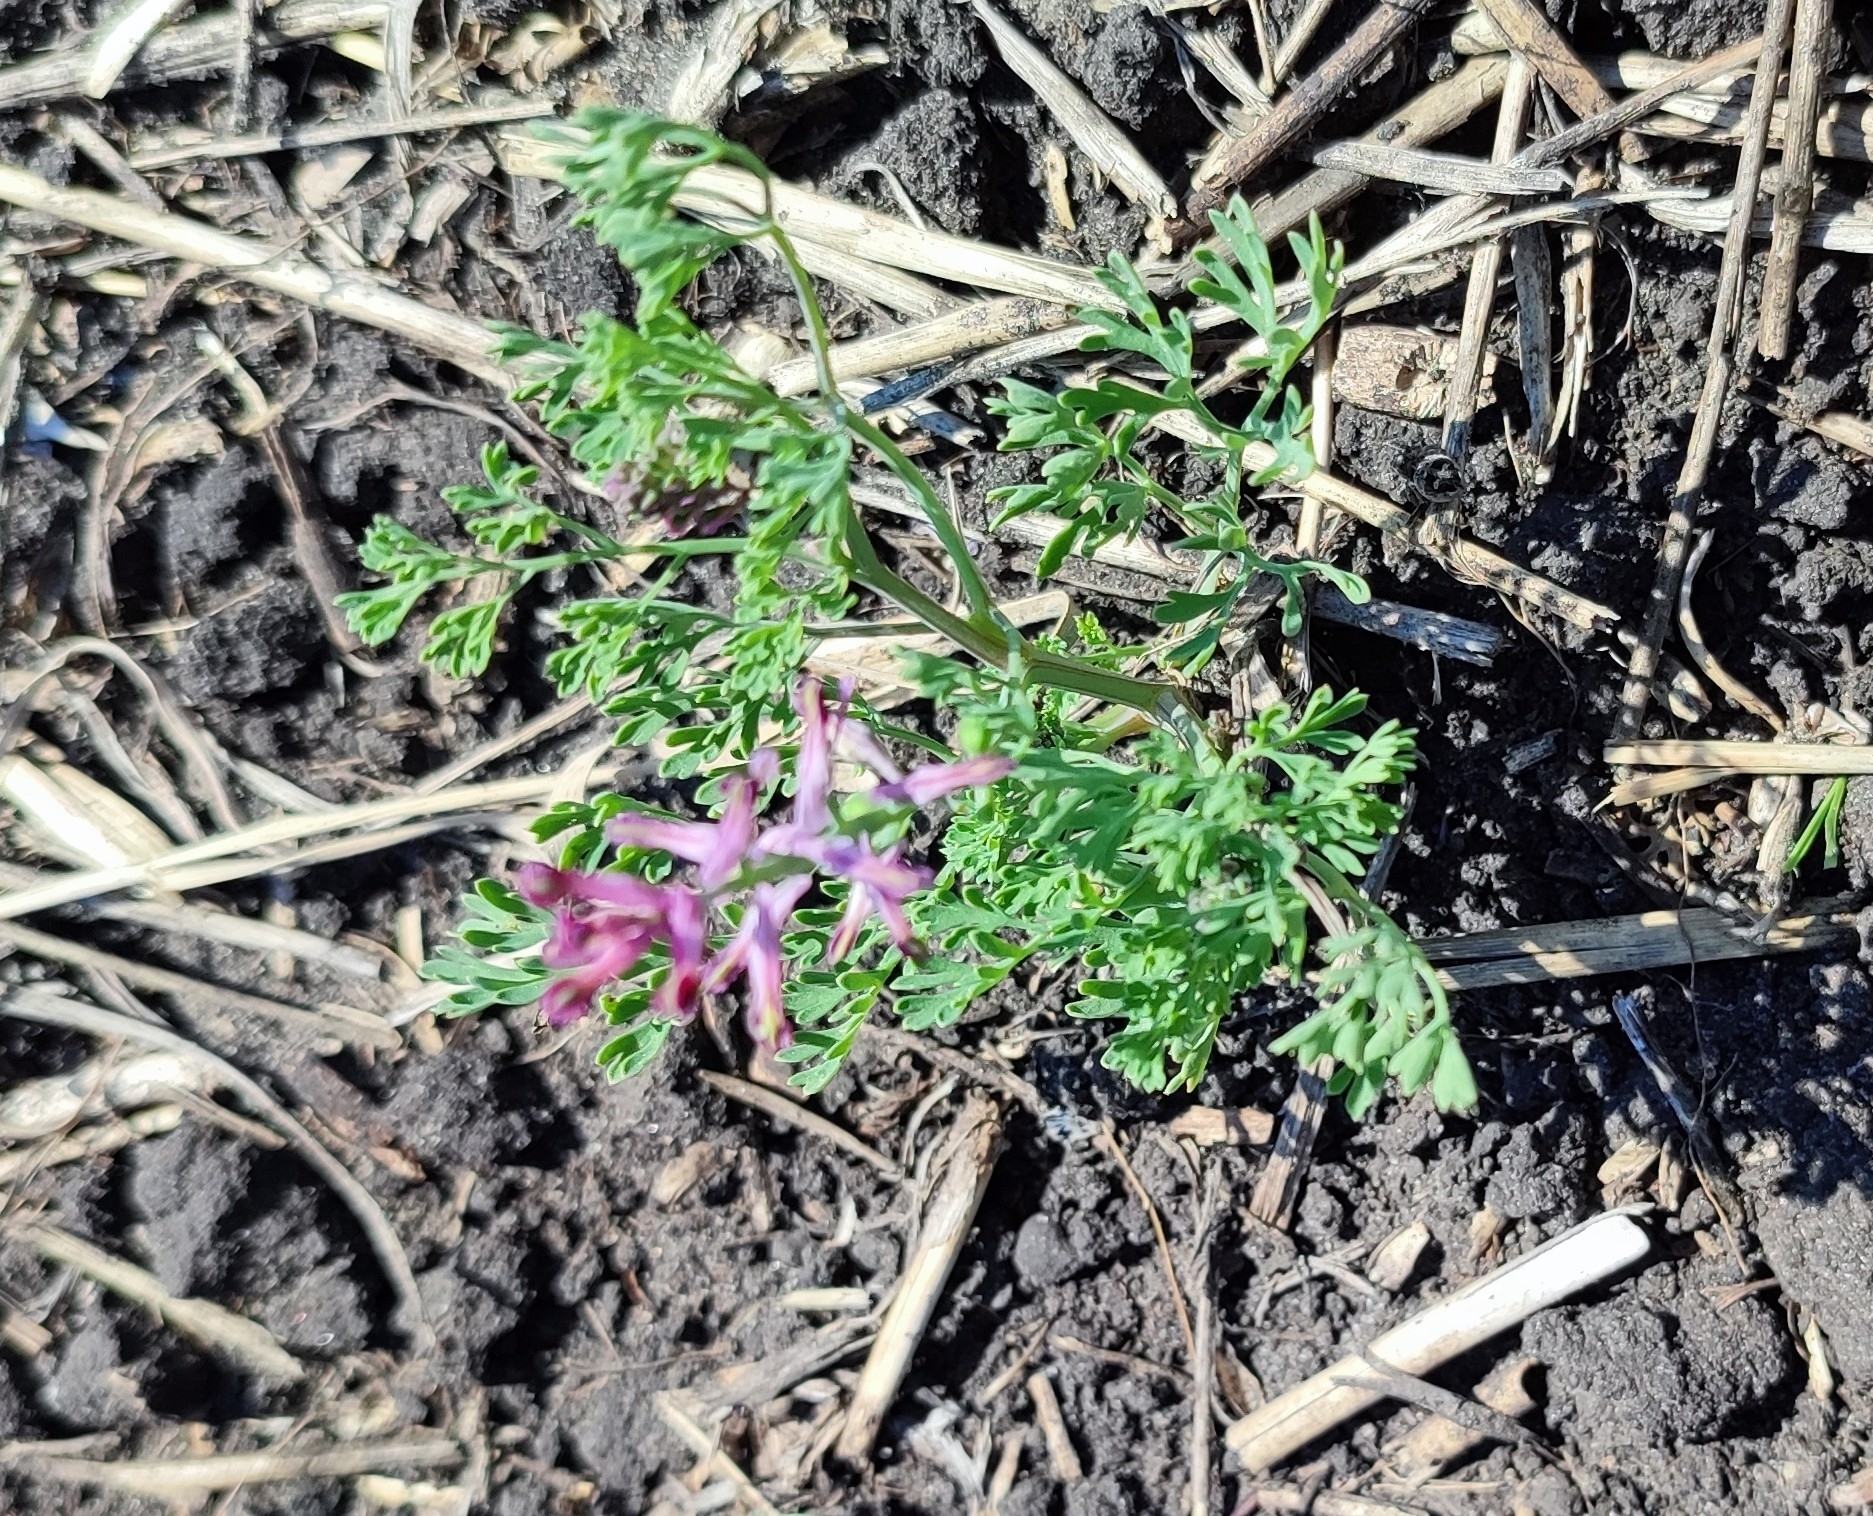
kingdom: Plantae
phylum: Tracheophyta
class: Magnoliopsida
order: Ranunculales
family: Papaveraceae
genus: Fumaria
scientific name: Fumaria officinalis
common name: Common fumitory
